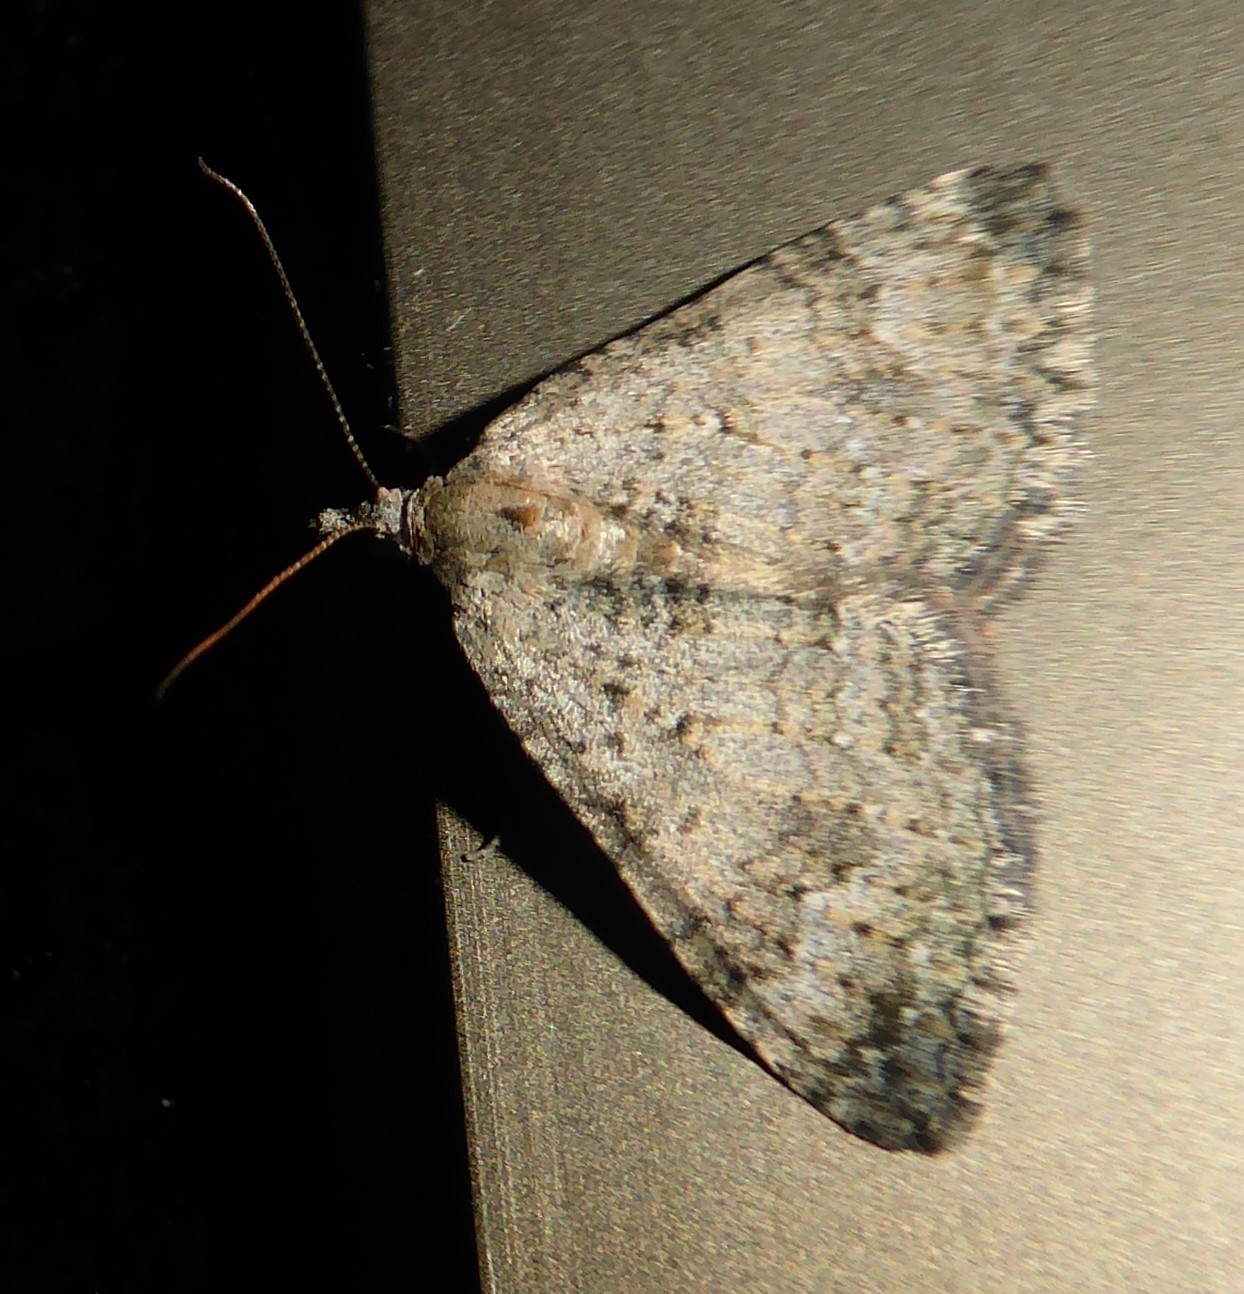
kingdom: Animalia
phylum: Arthropoda
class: Insecta
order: Lepidoptera
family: Geometridae
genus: Helastia
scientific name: Helastia corcularia
